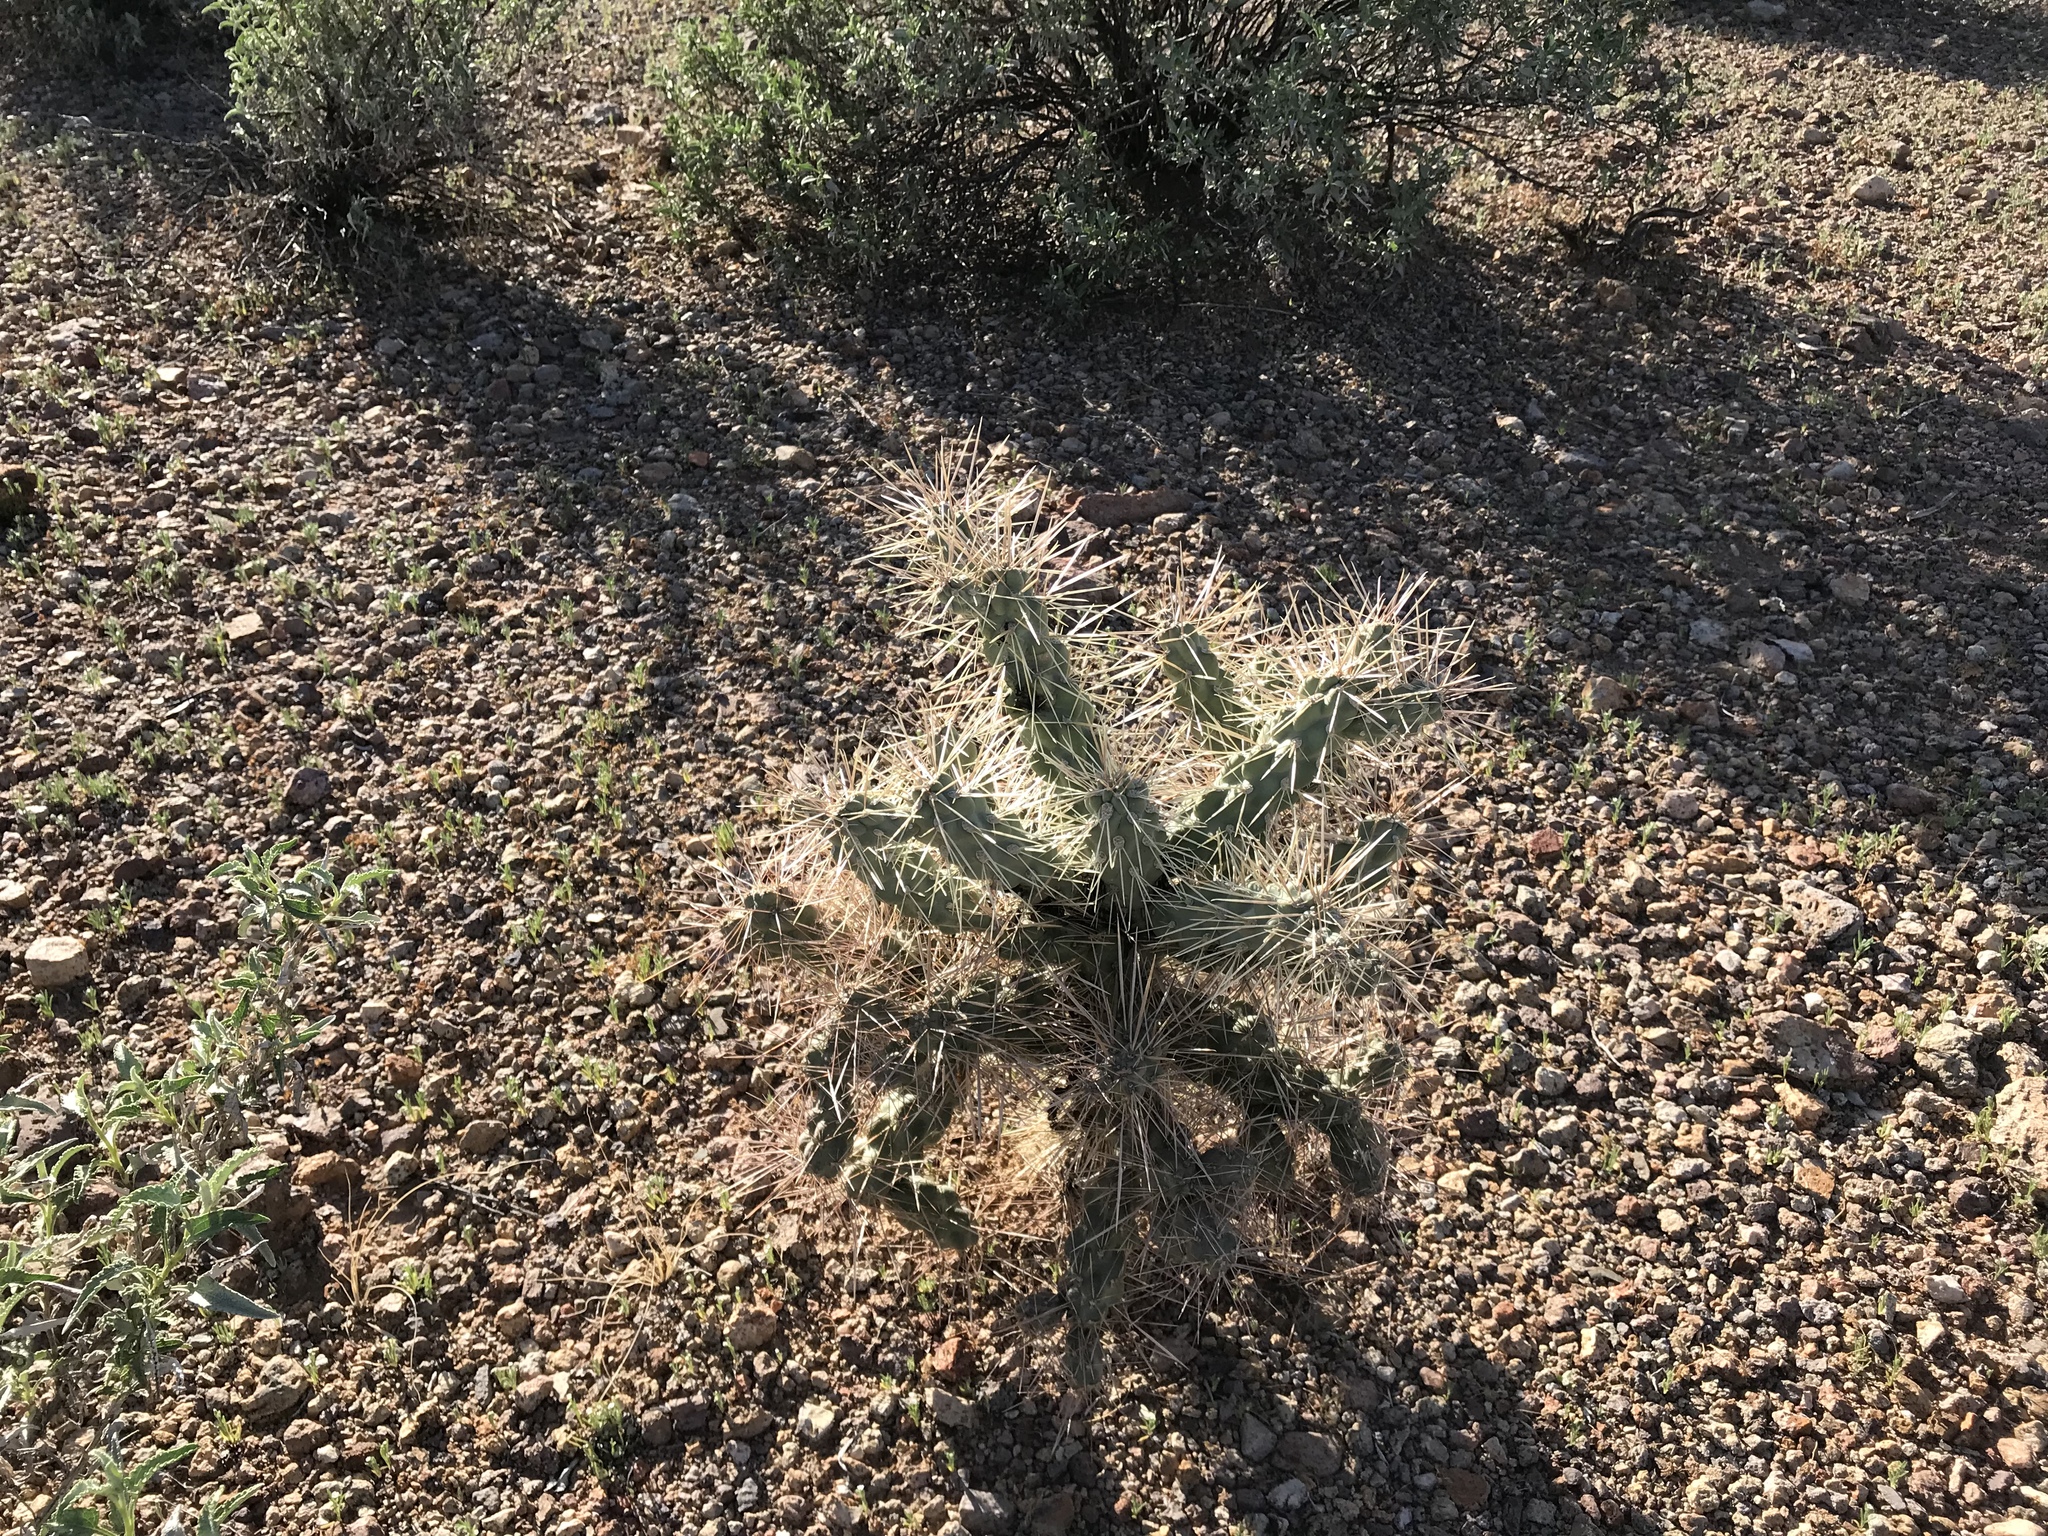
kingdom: Plantae
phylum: Tracheophyta
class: Magnoliopsida
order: Caryophyllales
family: Cactaceae
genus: Cylindropuntia
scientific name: Cylindropuntia fulgida
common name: Jumping cholla
